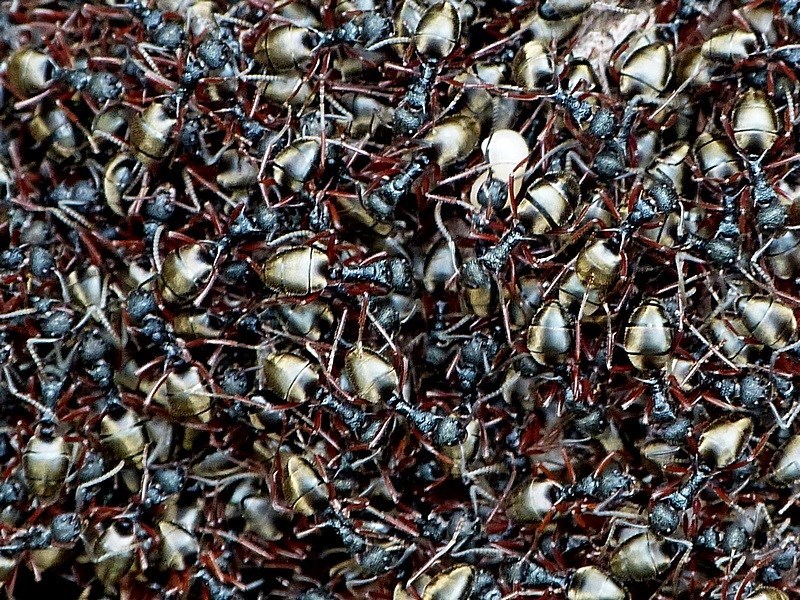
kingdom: Animalia
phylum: Arthropoda
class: Insecta
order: Hymenoptera
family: Formicidae
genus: Dolichoderus
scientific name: Dolichoderus doriae
